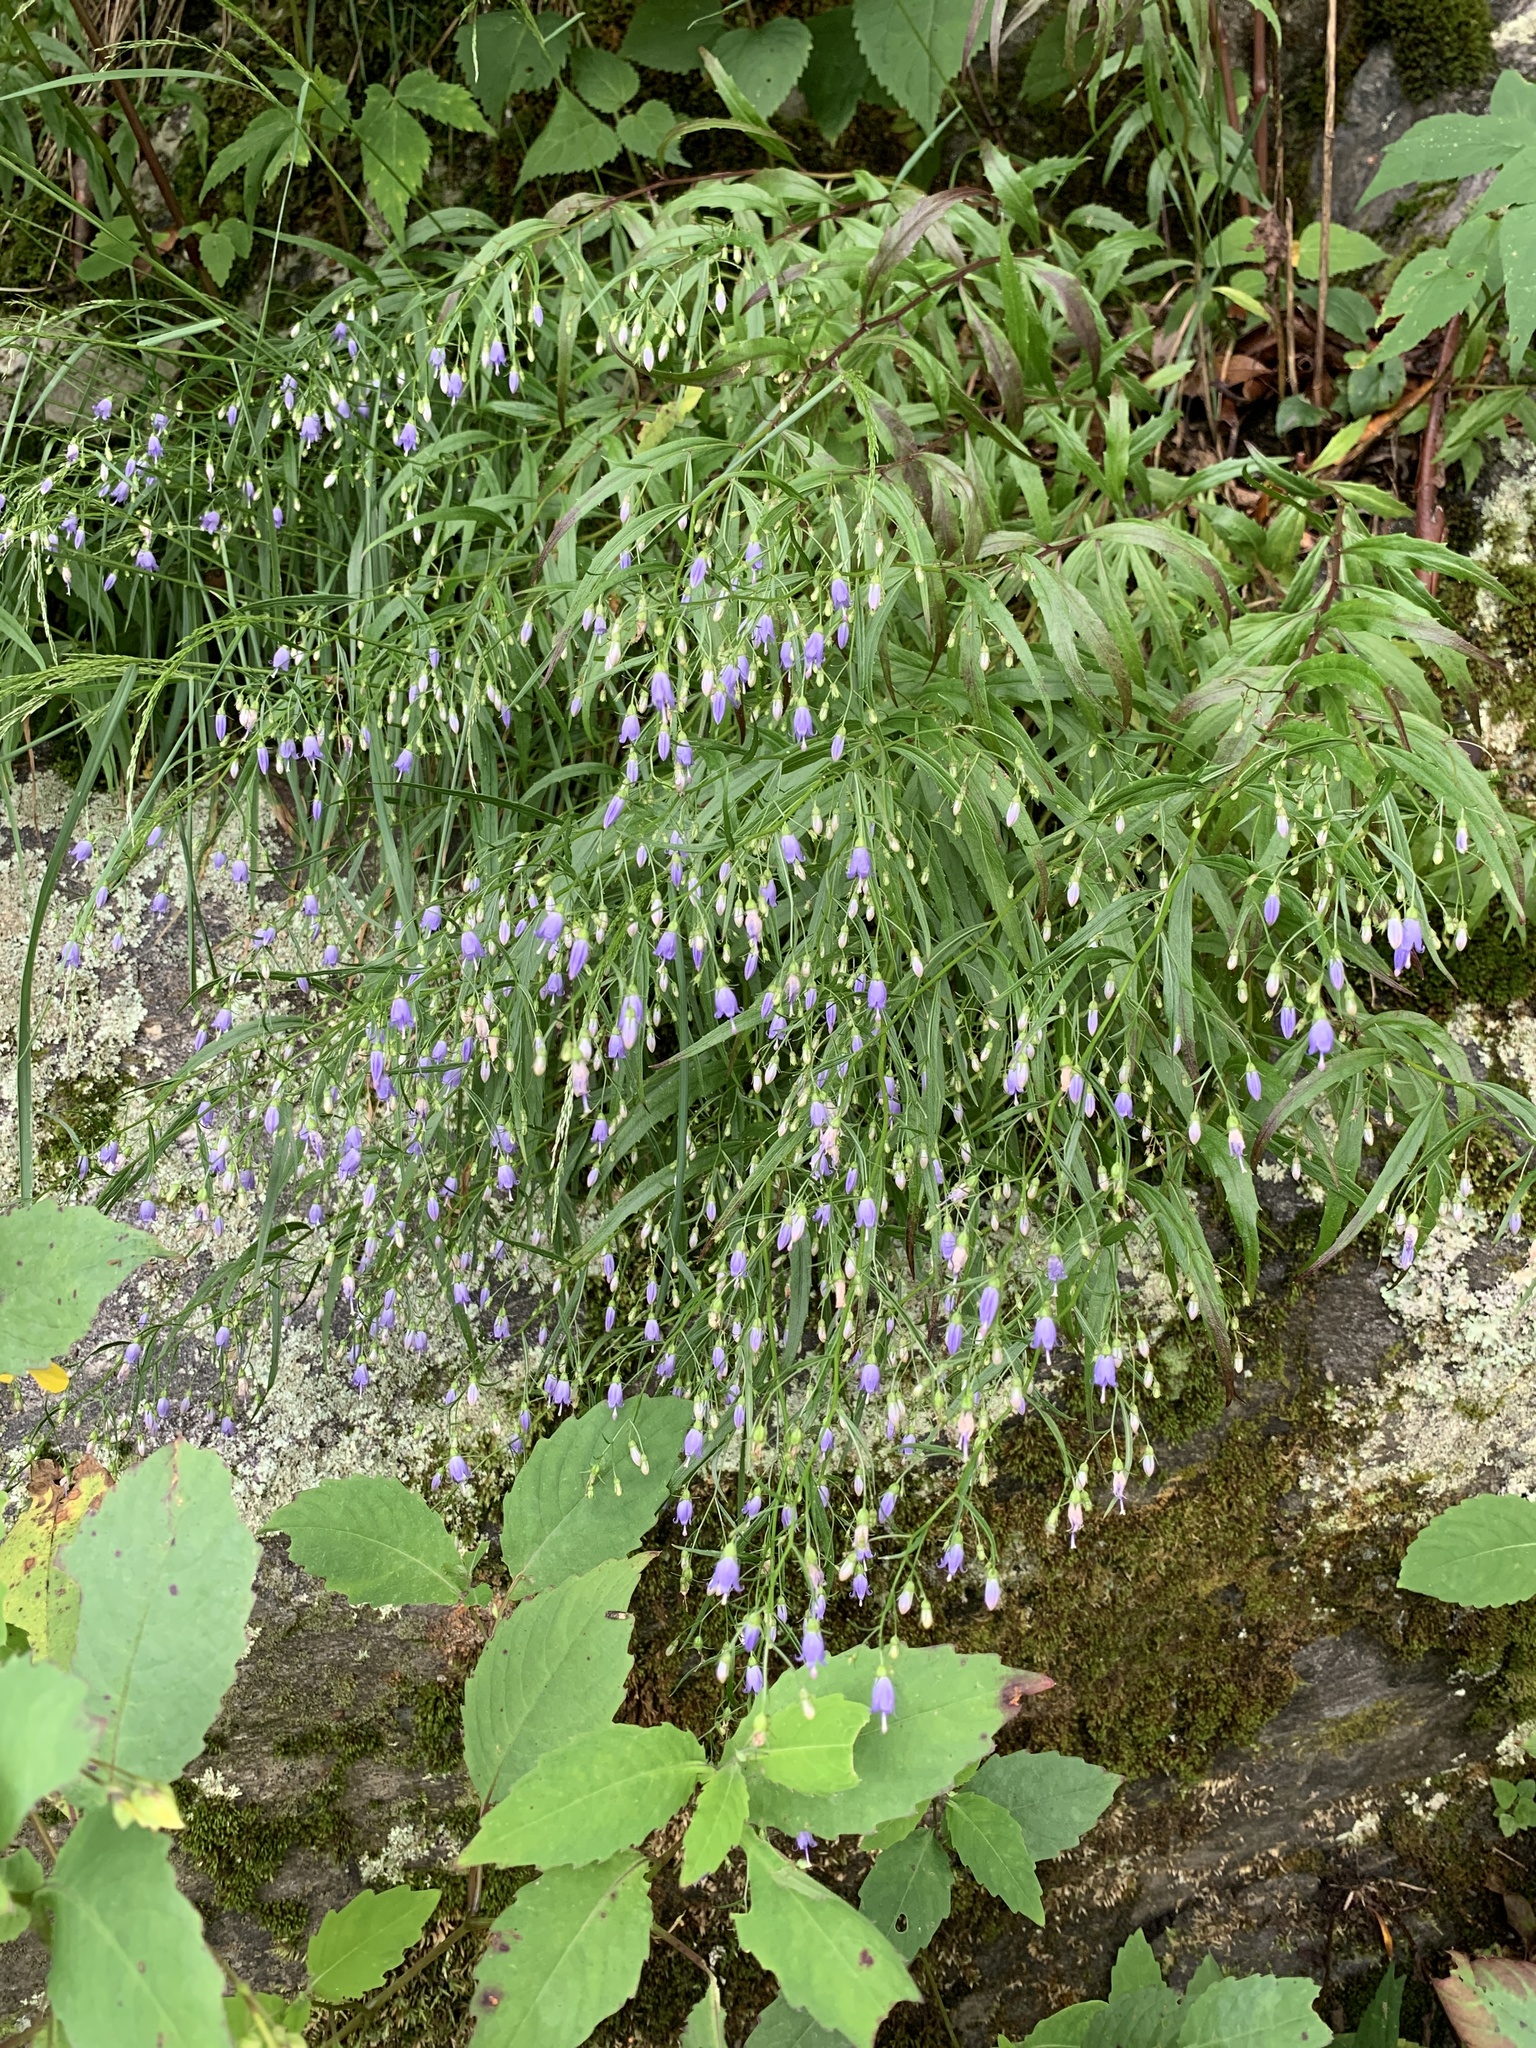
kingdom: Plantae
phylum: Tracheophyta
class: Magnoliopsida
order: Asterales
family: Campanulaceae
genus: Campanula
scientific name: Campanula divaricata
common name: Appalachian bellflower
